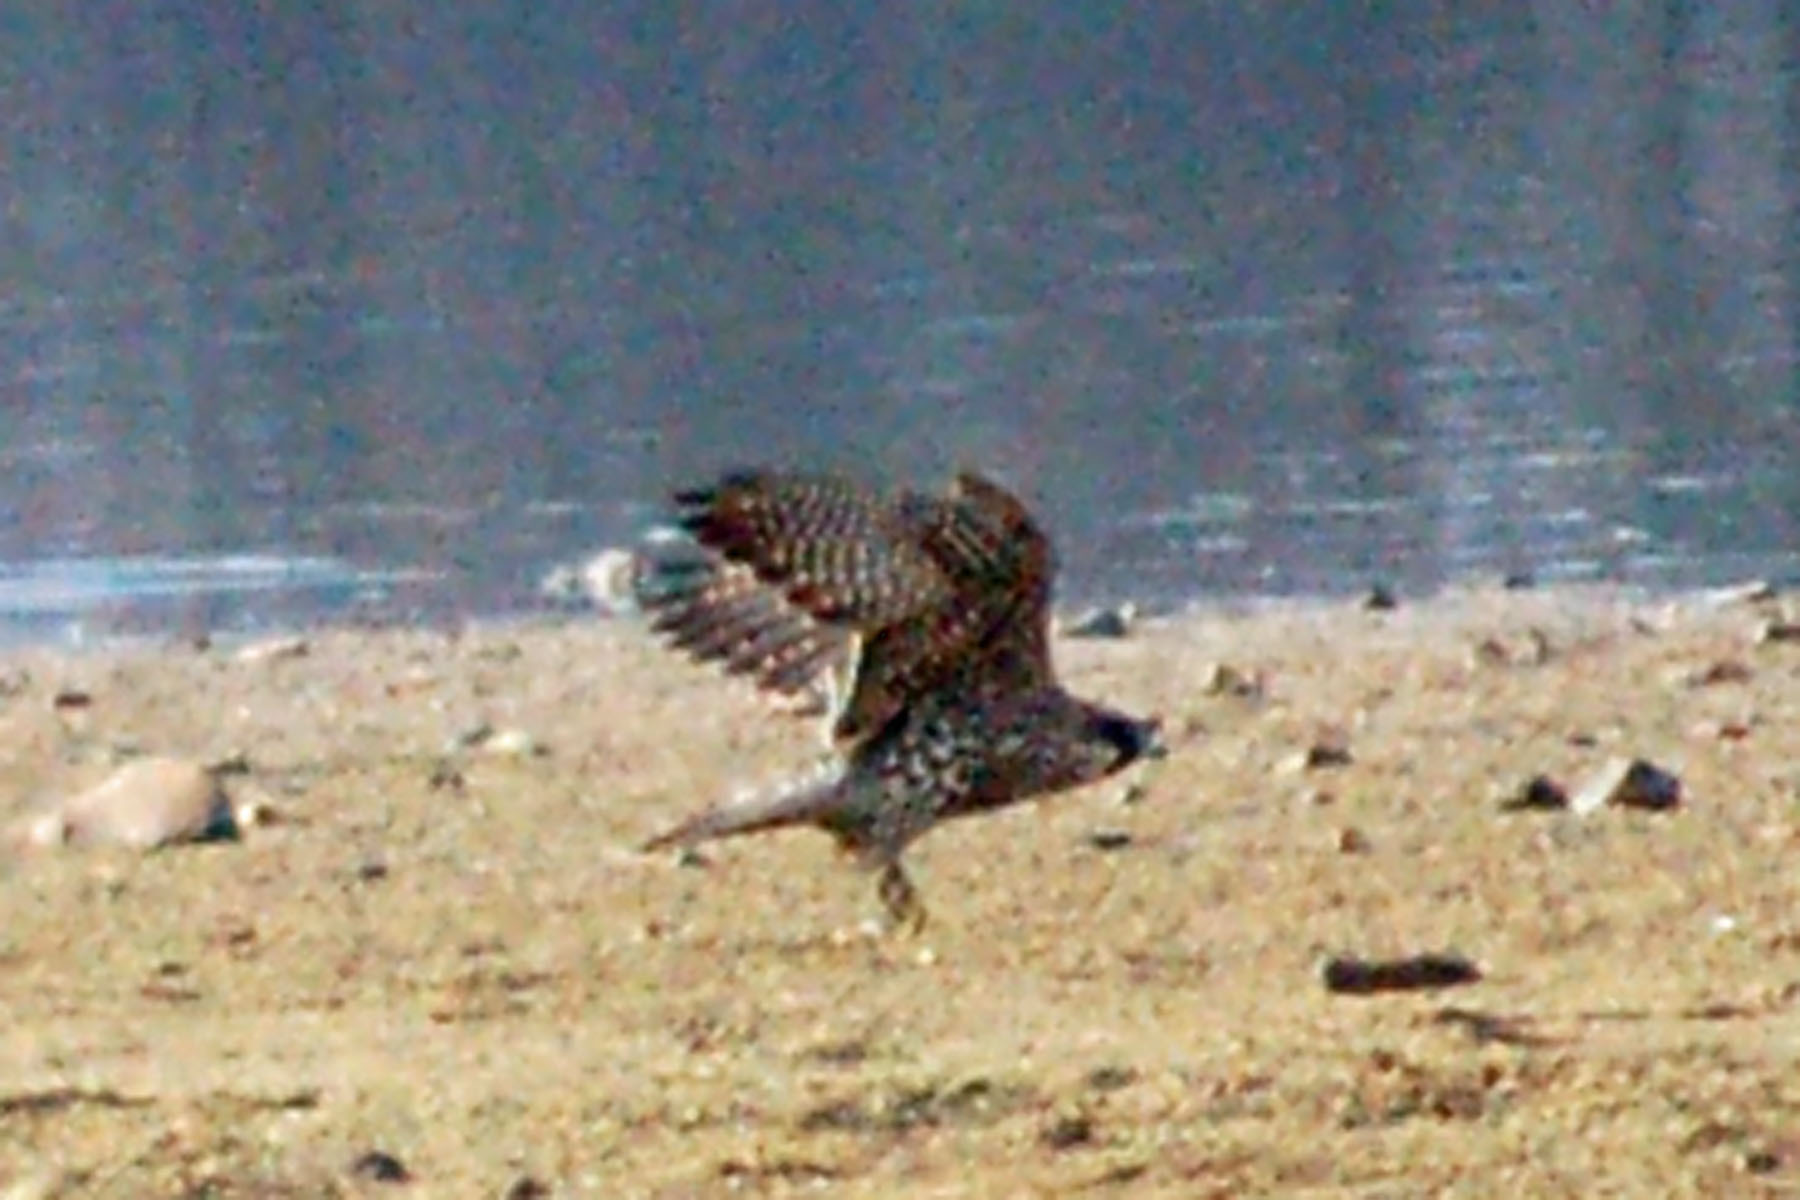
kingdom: Animalia
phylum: Chordata
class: Aves
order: Falconiformes
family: Falconidae
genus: Falco
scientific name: Falco peregrinus
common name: Peregrine falcon
